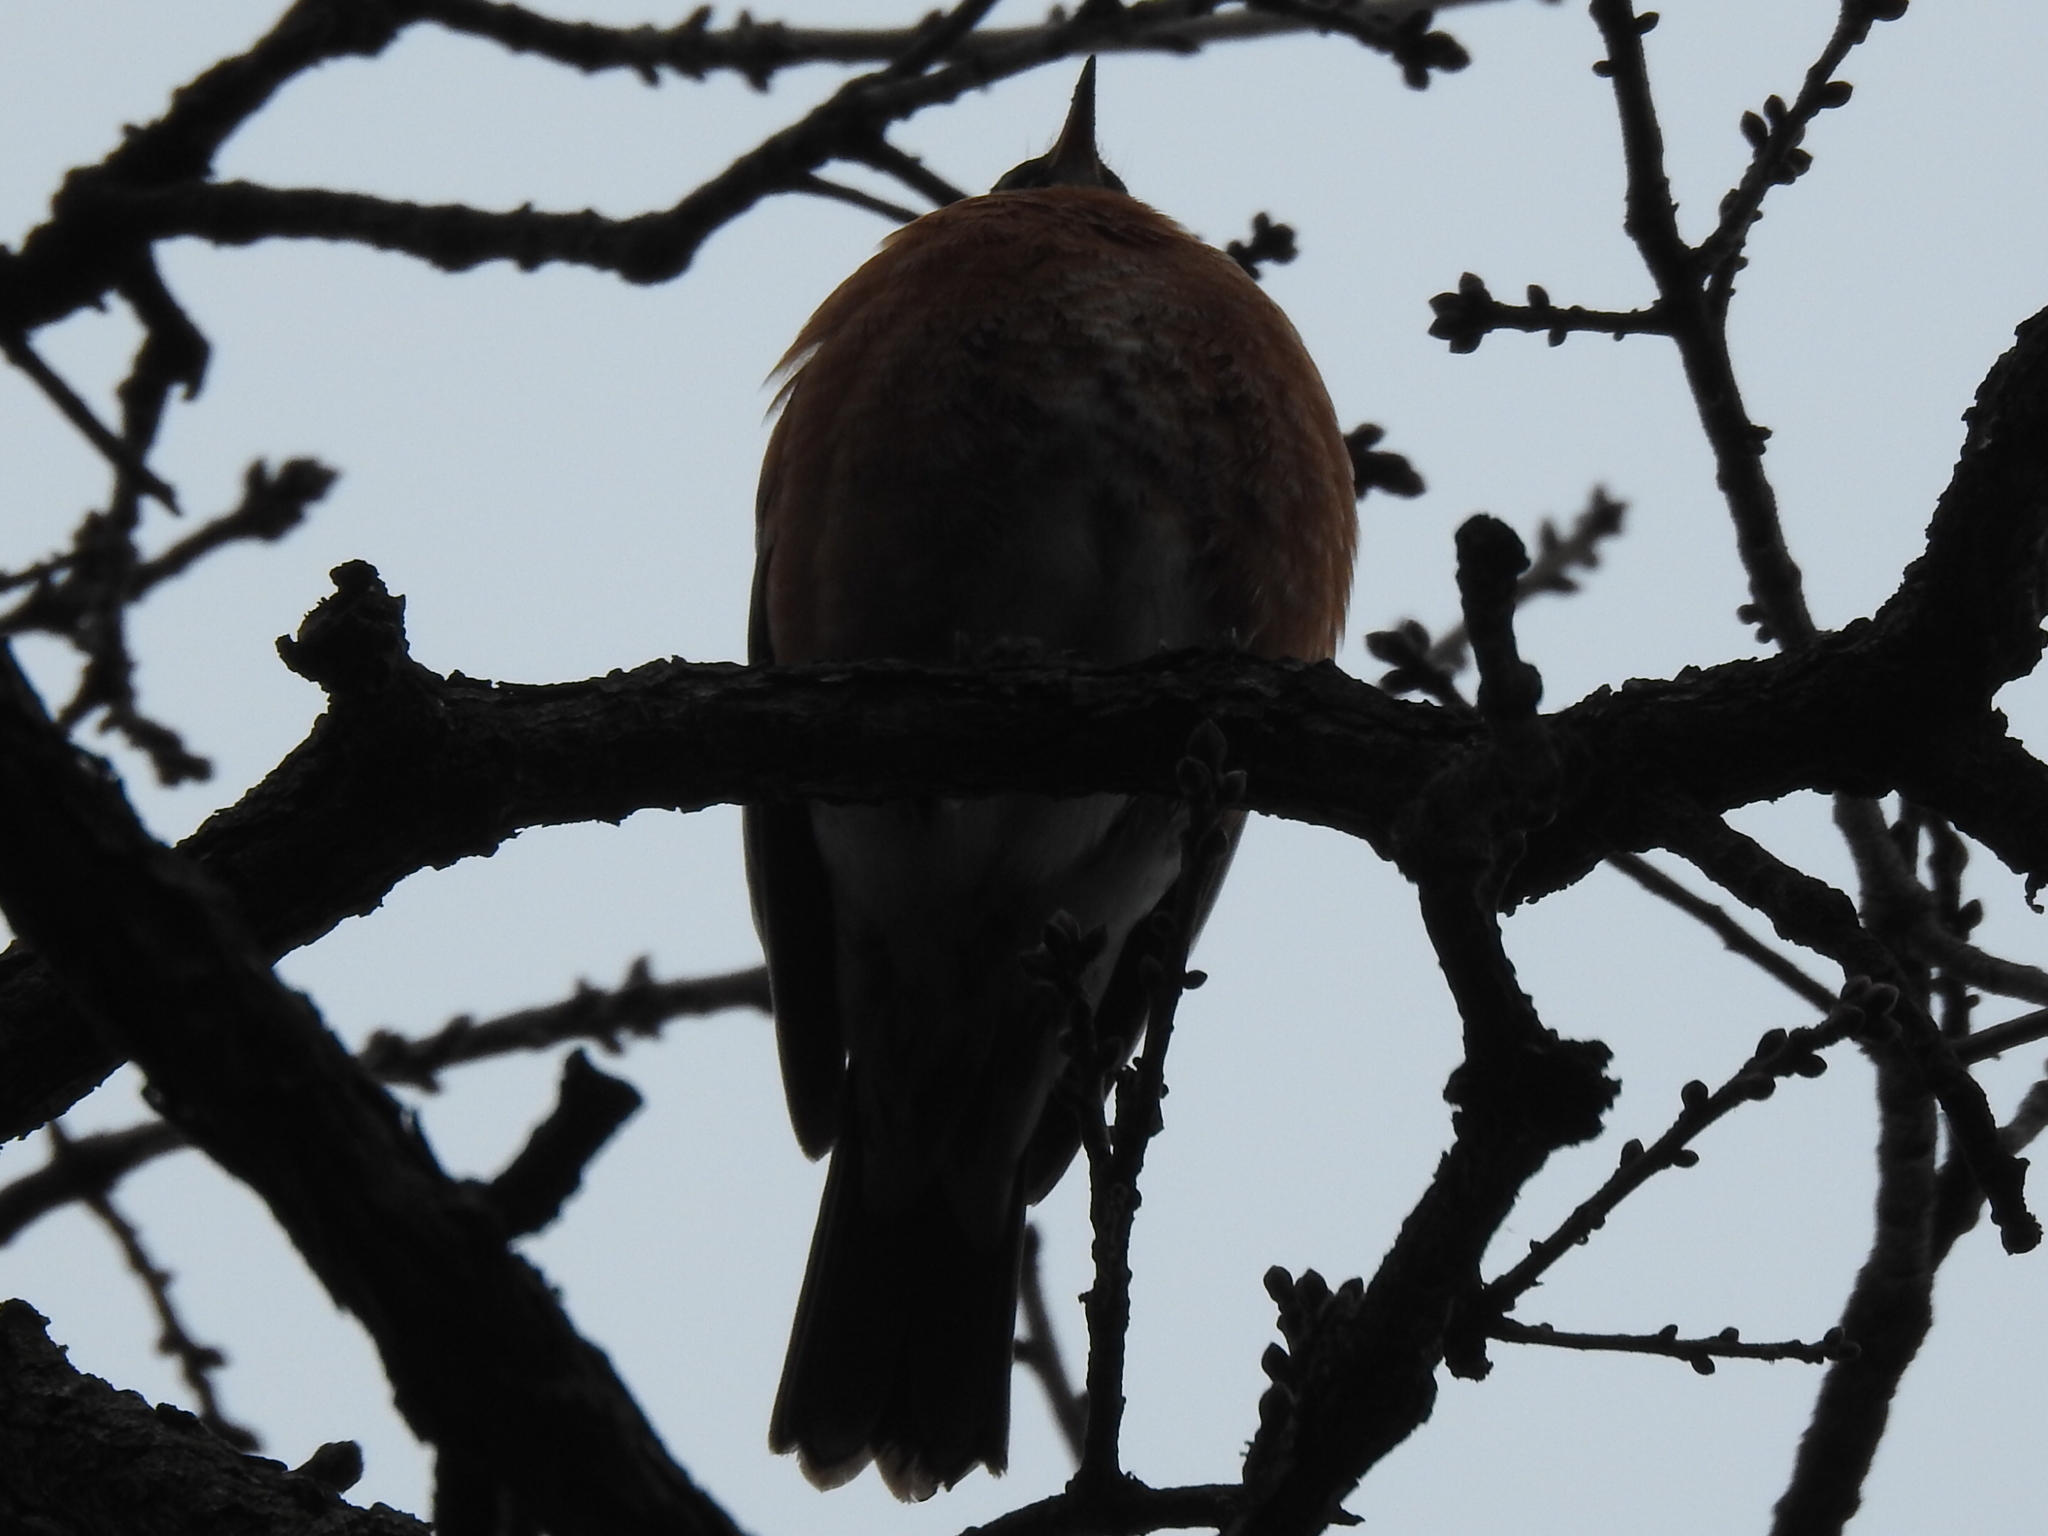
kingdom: Animalia
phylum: Chordata
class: Aves
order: Passeriformes
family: Turdidae
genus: Turdus
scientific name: Turdus migratorius
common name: American robin
